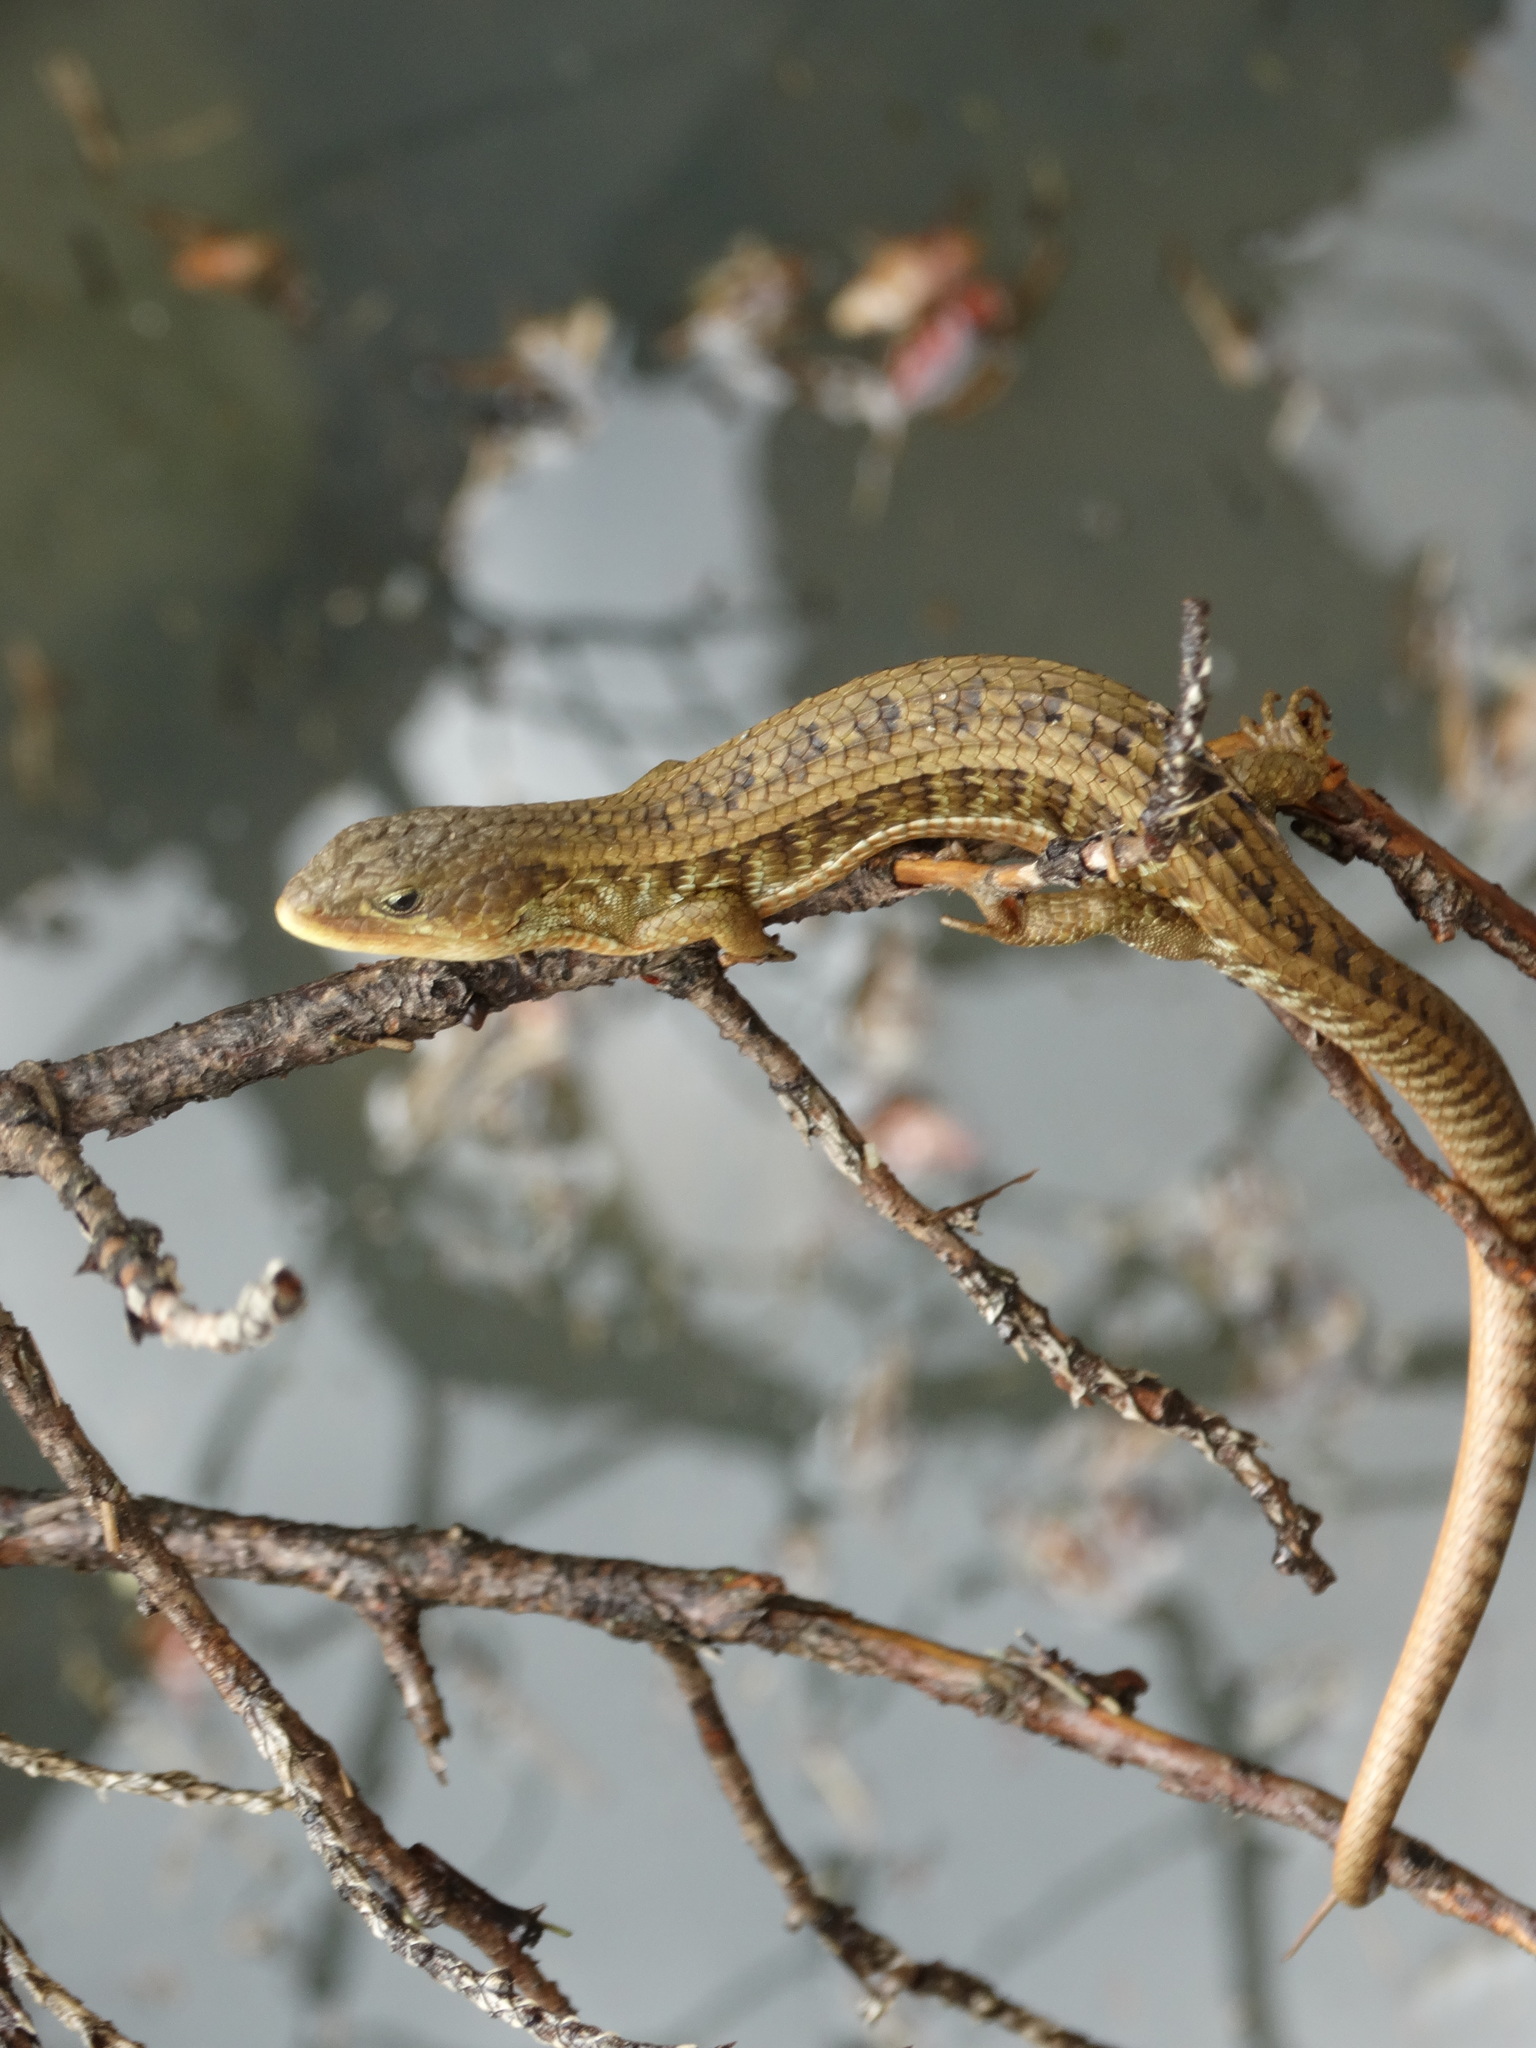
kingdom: Animalia
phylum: Chordata
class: Squamata
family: Anguidae
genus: Barisia
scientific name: Barisia imbricata
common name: Imbricate alligator lizard
